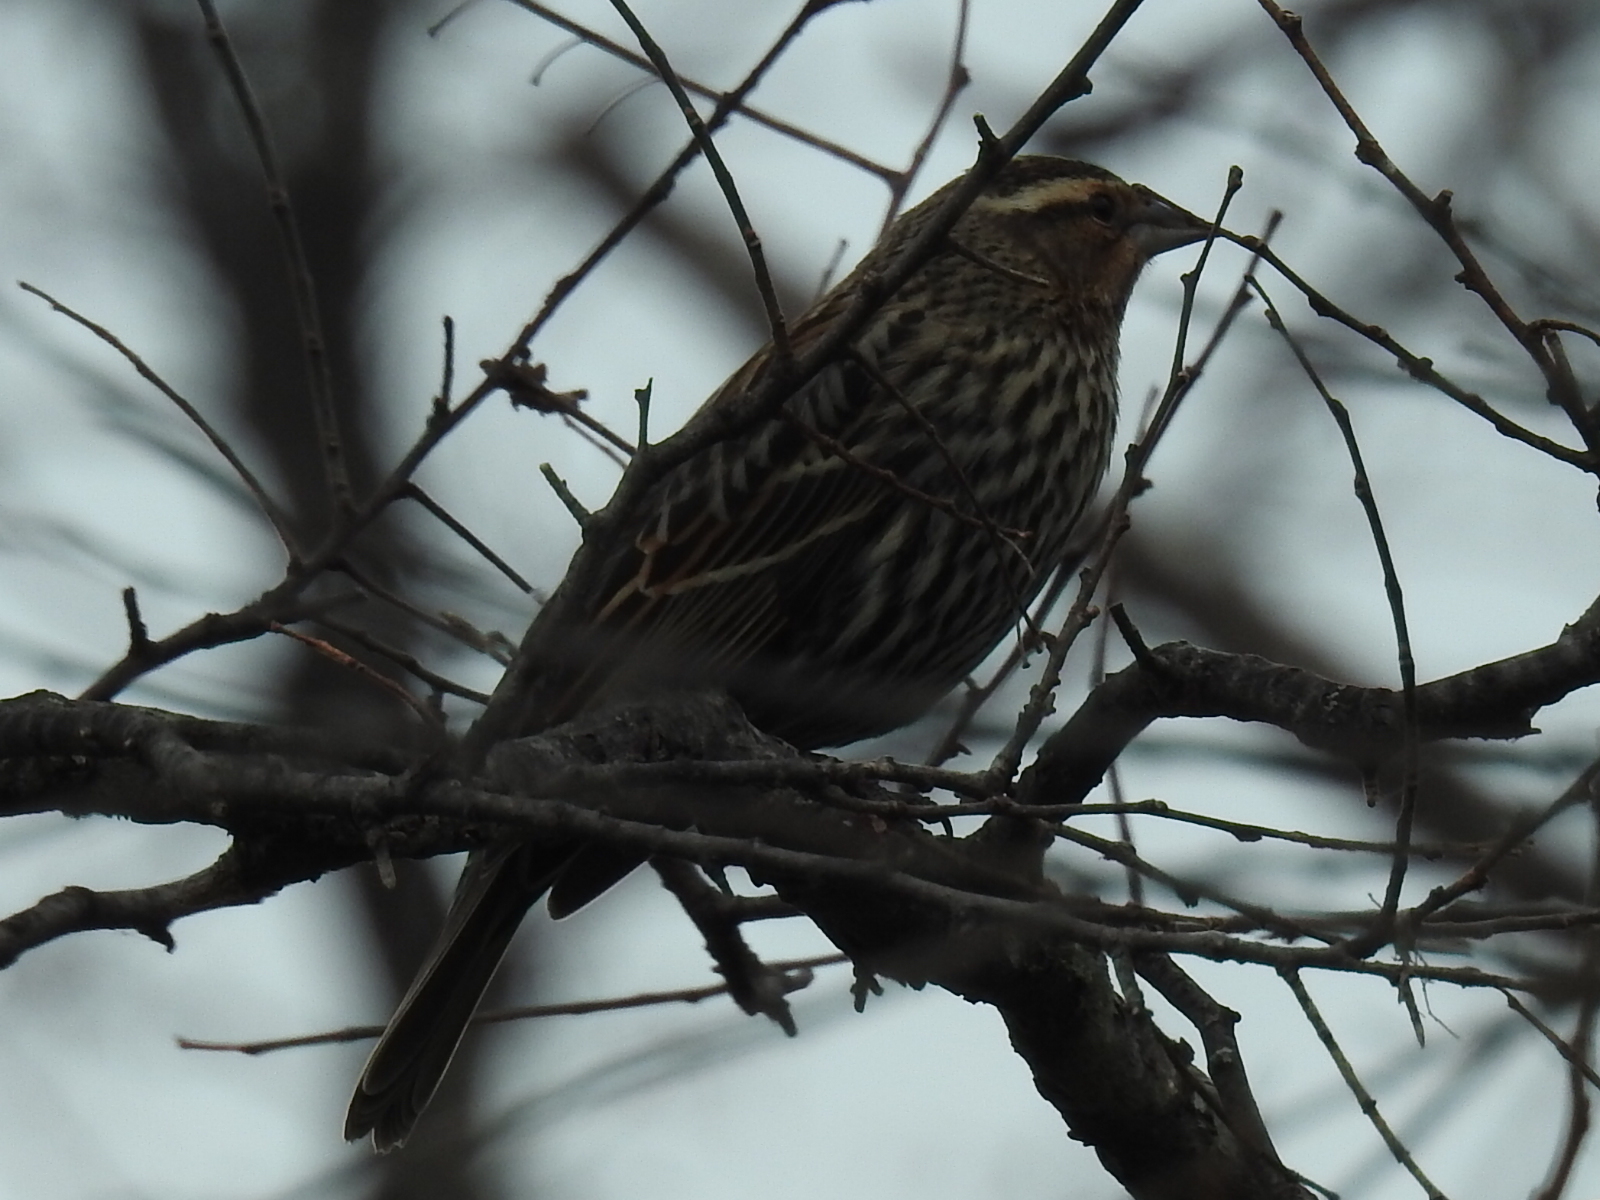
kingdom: Animalia
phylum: Chordata
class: Aves
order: Passeriformes
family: Icteridae
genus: Agelaius
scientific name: Agelaius phoeniceus
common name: Red-winged blackbird
